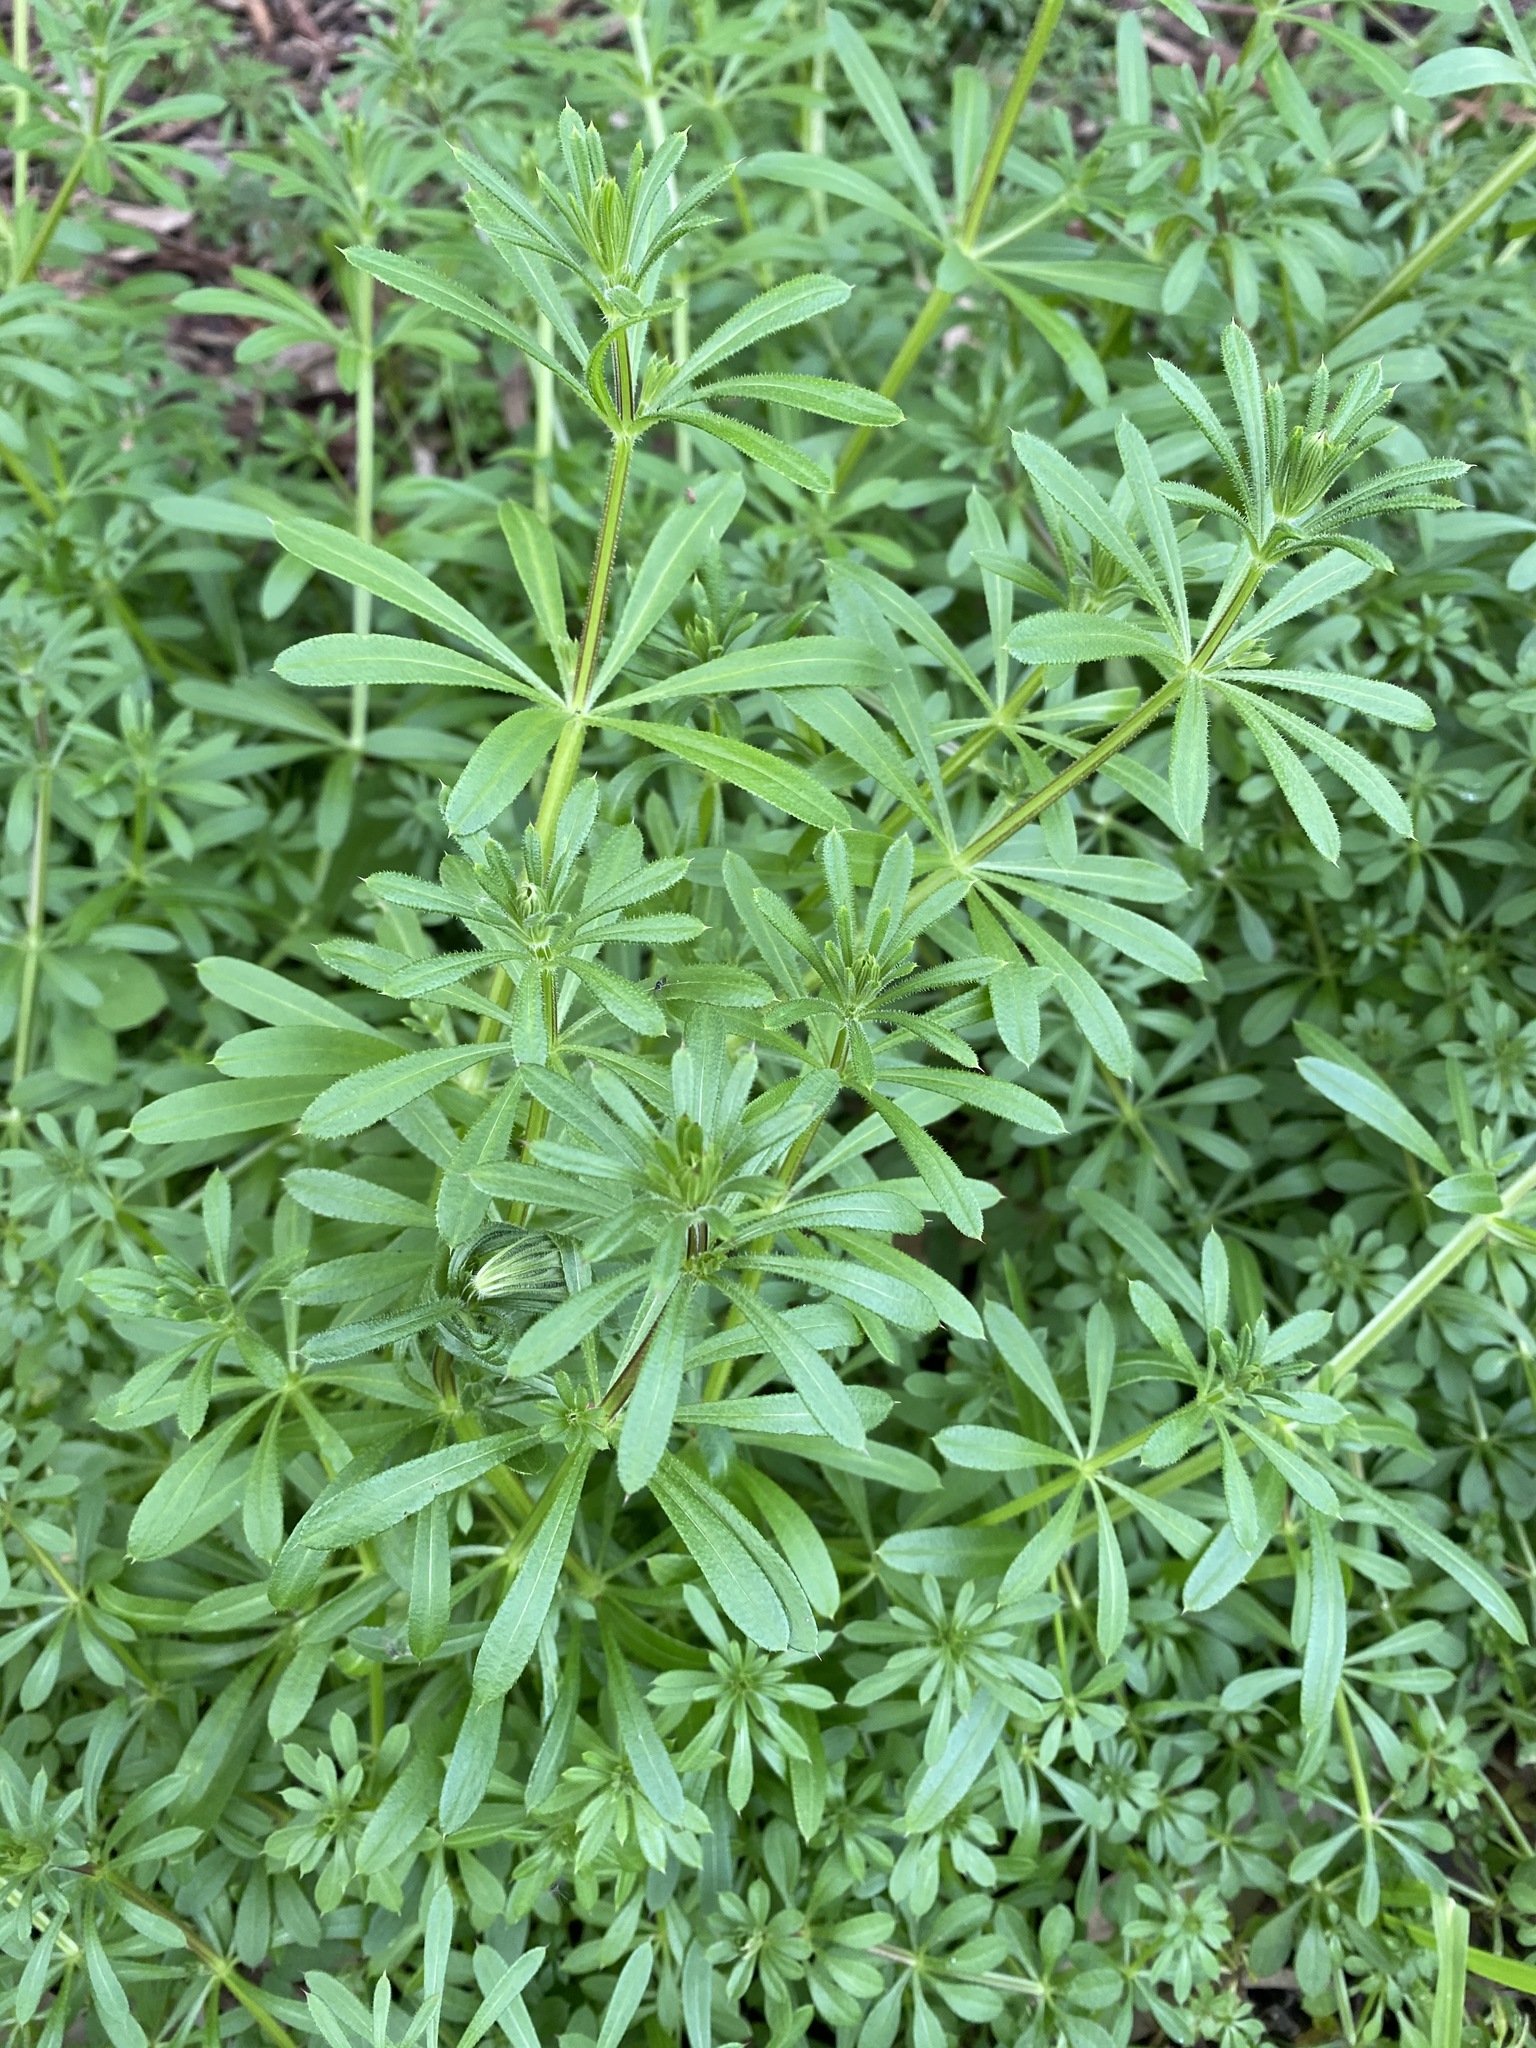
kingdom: Plantae
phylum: Tracheophyta
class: Magnoliopsida
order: Gentianales
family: Rubiaceae
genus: Galium
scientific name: Galium aparine
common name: Cleavers
